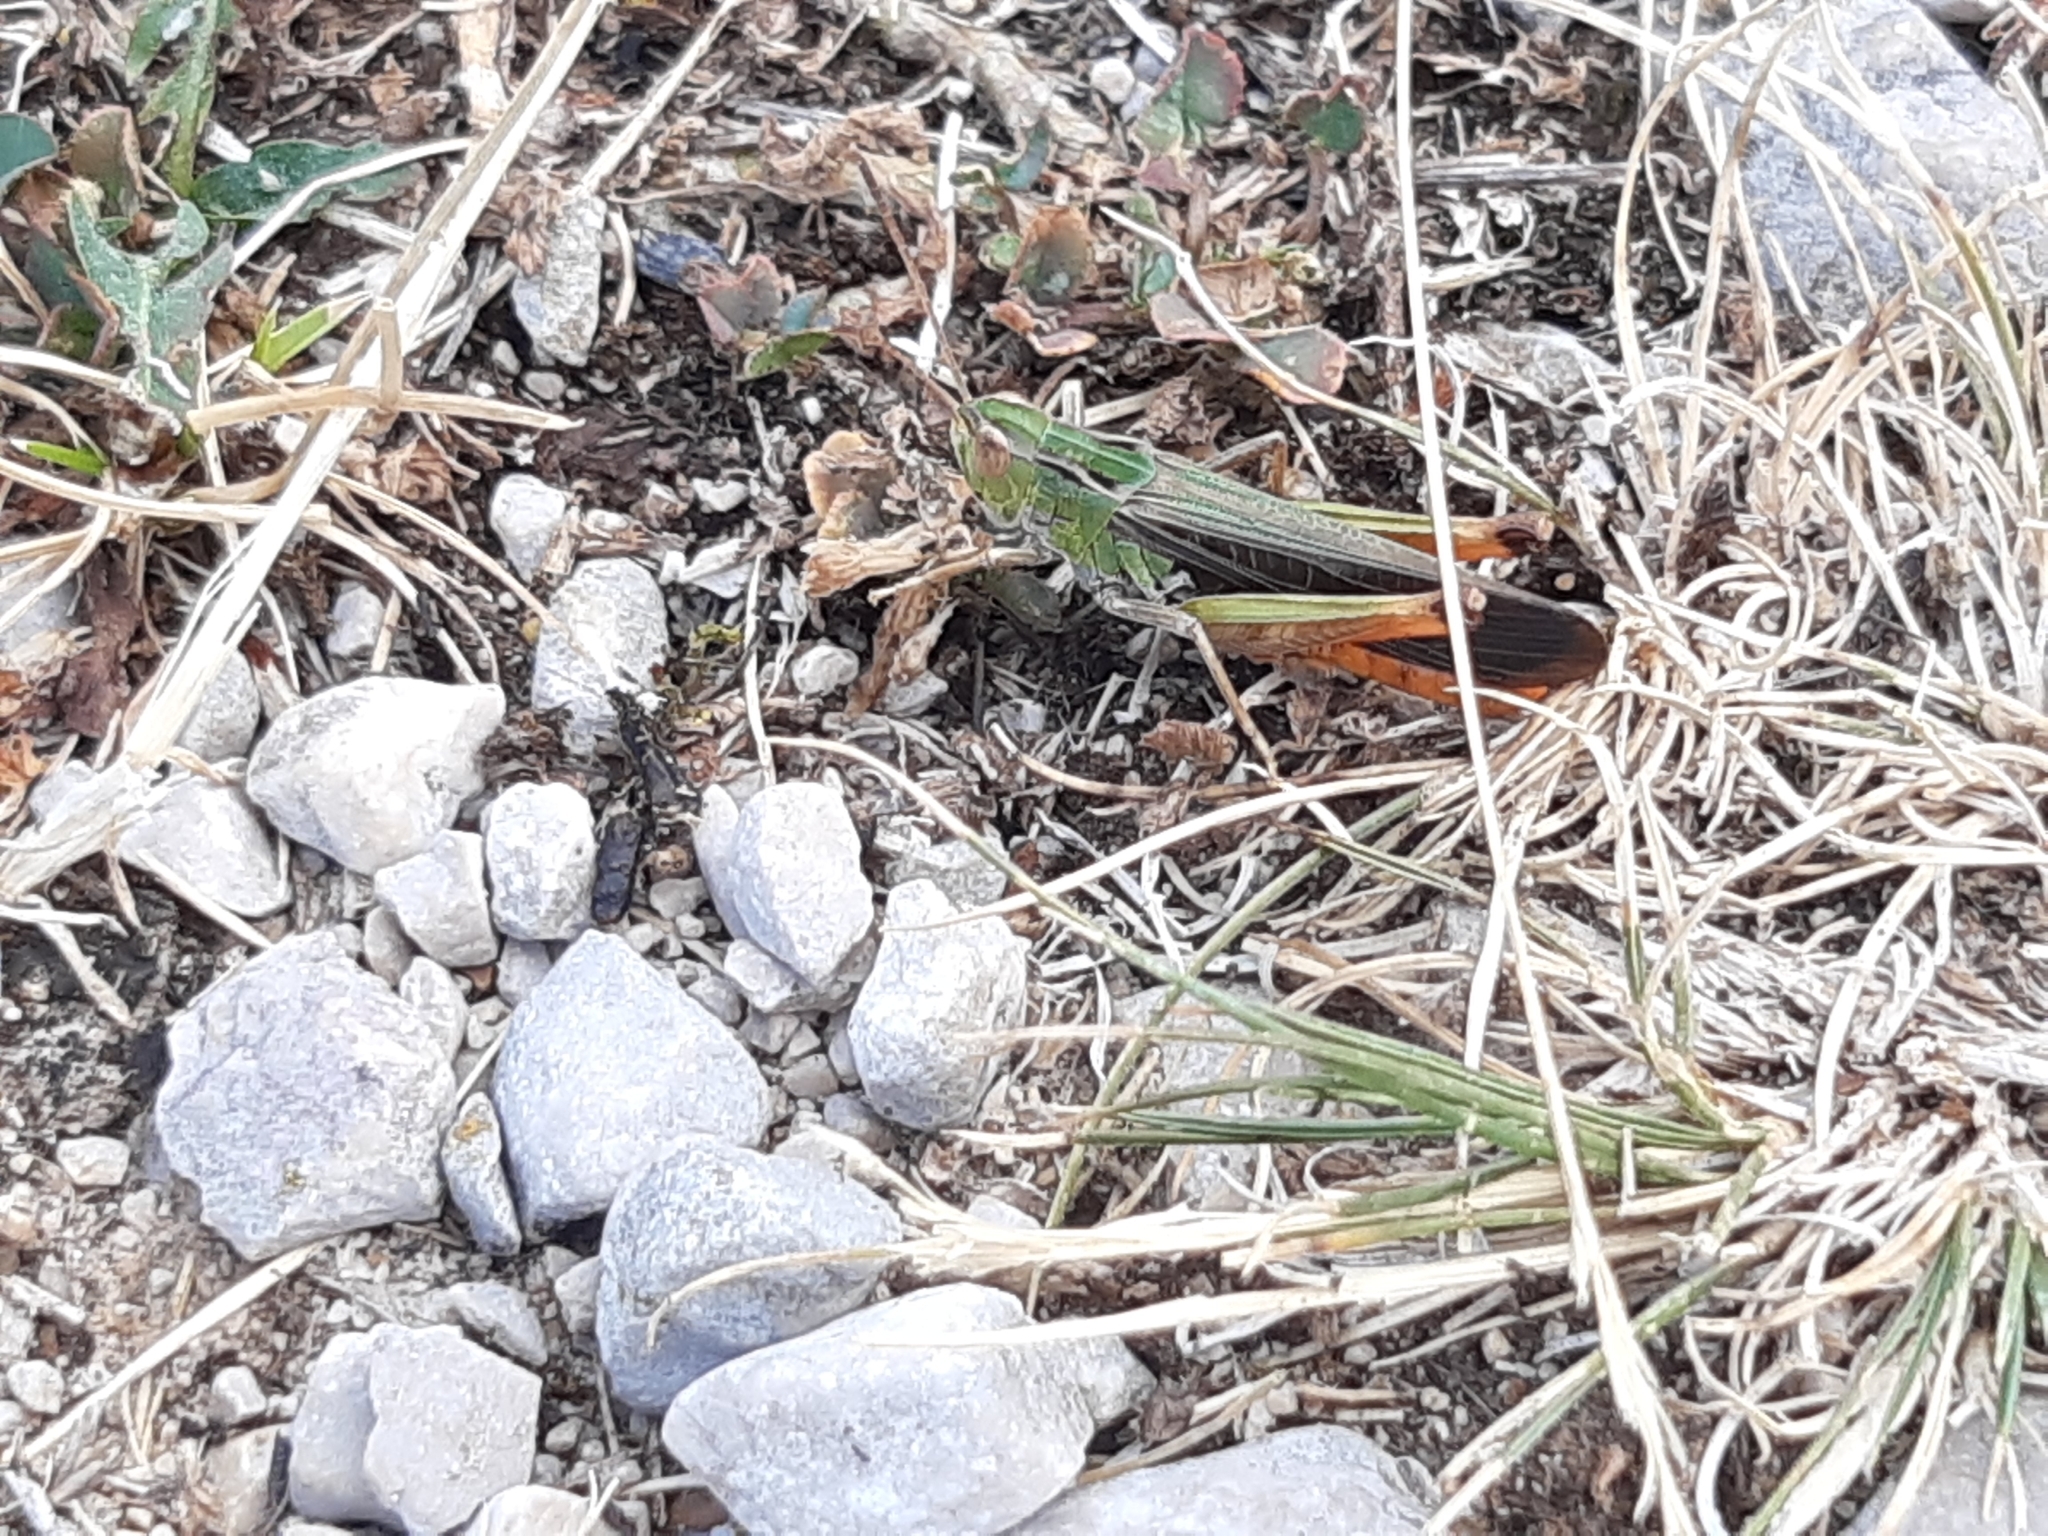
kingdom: Animalia
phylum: Arthropoda
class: Insecta
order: Orthoptera
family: Acrididae
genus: Stenobothrus
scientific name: Stenobothrus rubicundulus
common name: Wing-buzzing grasshopper
